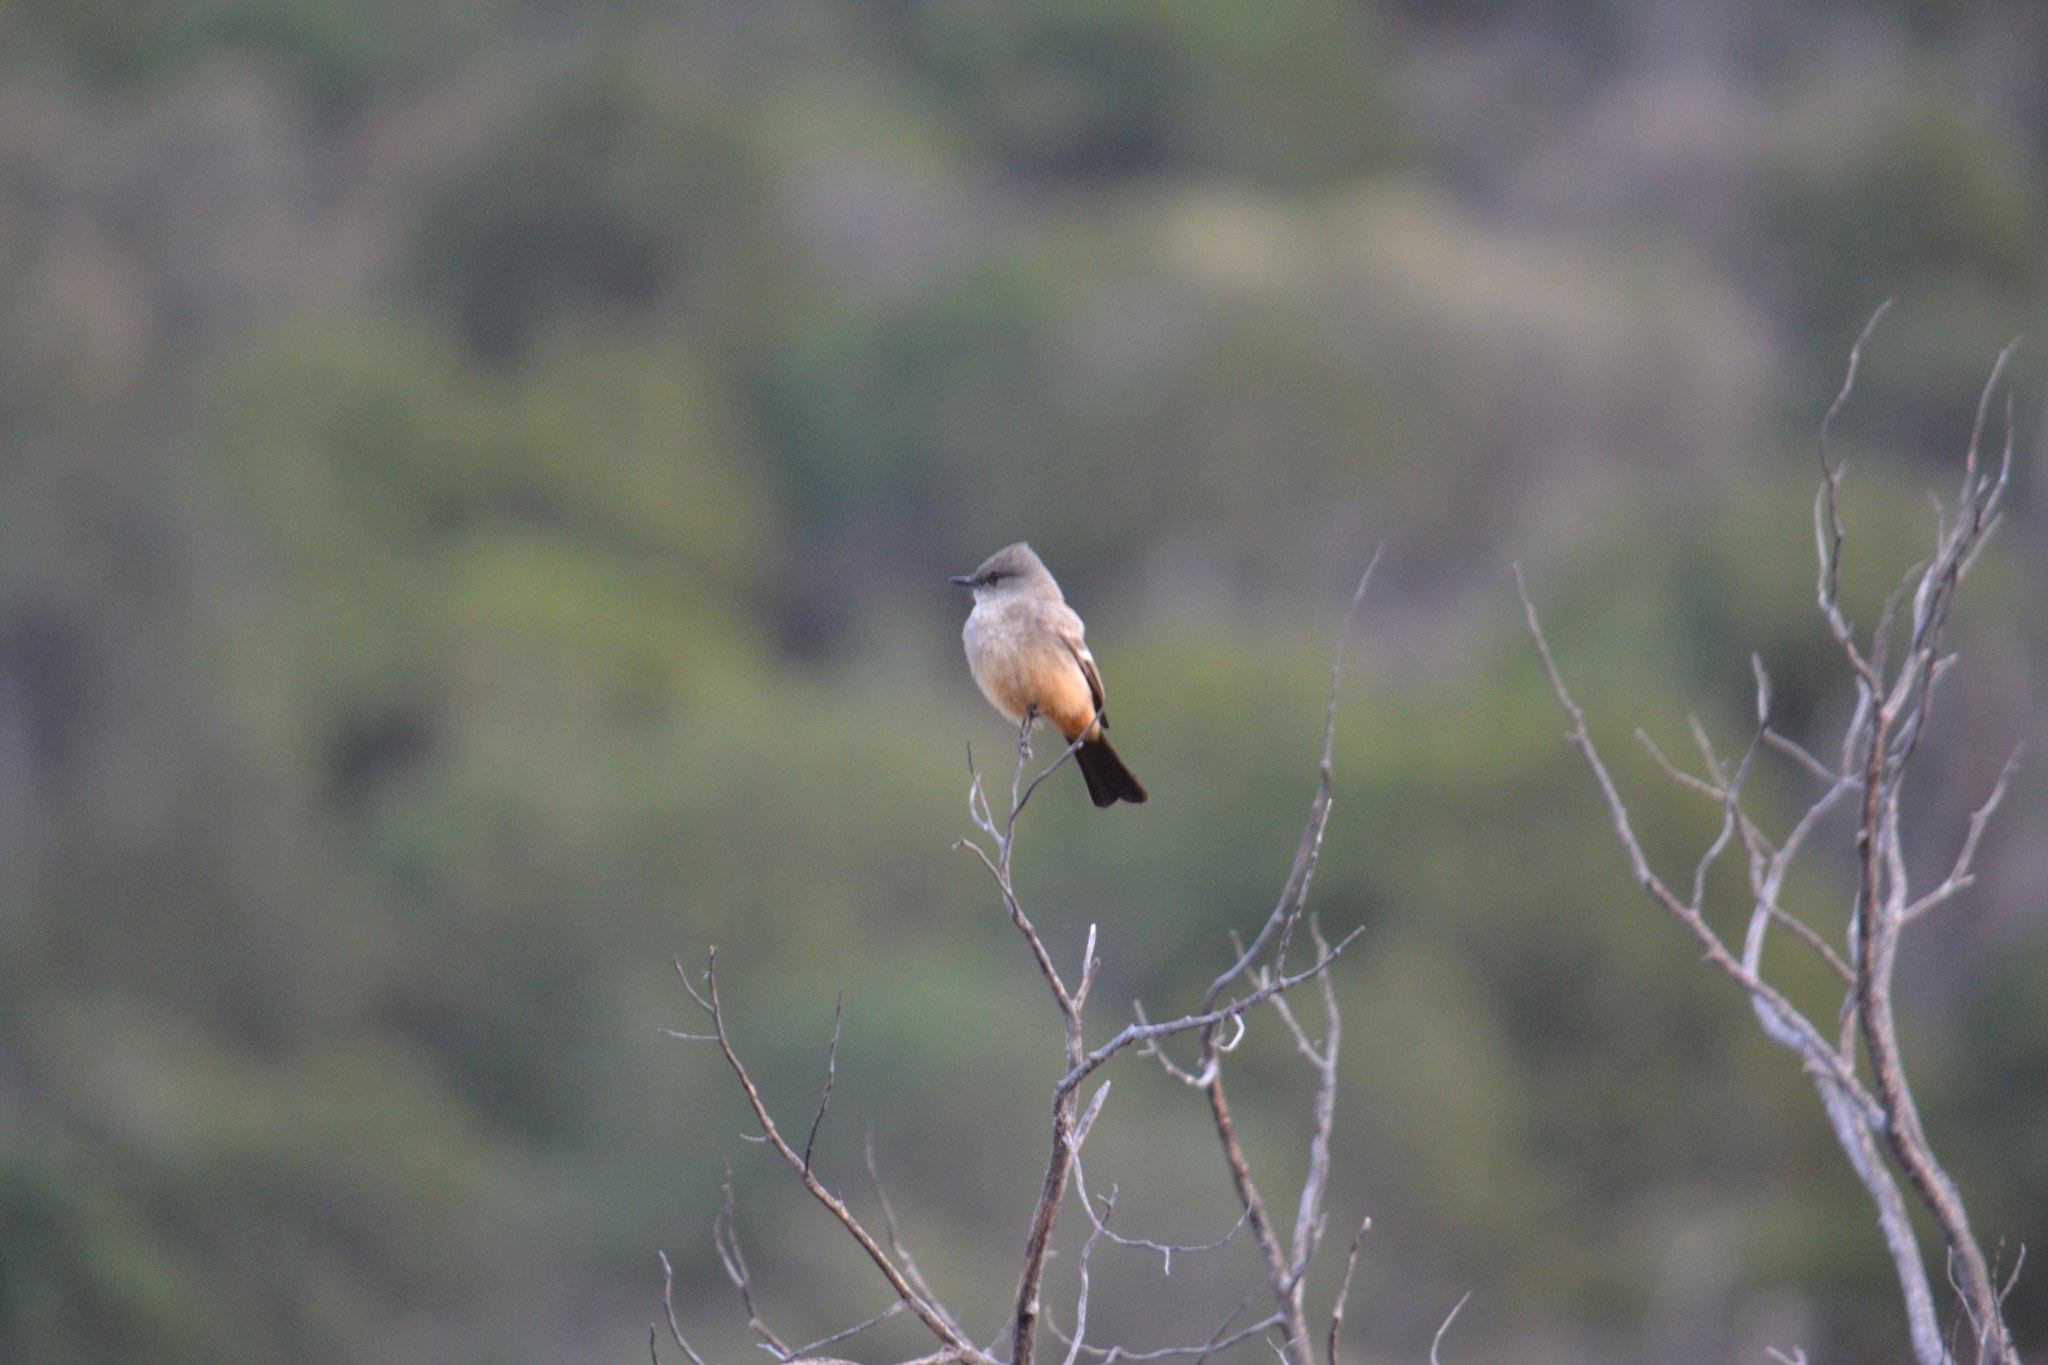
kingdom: Animalia
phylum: Chordata
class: Aves
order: Passeriformes
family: Tyrannidae
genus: Sayornis
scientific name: Sayornis saya
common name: Say's phoebe
